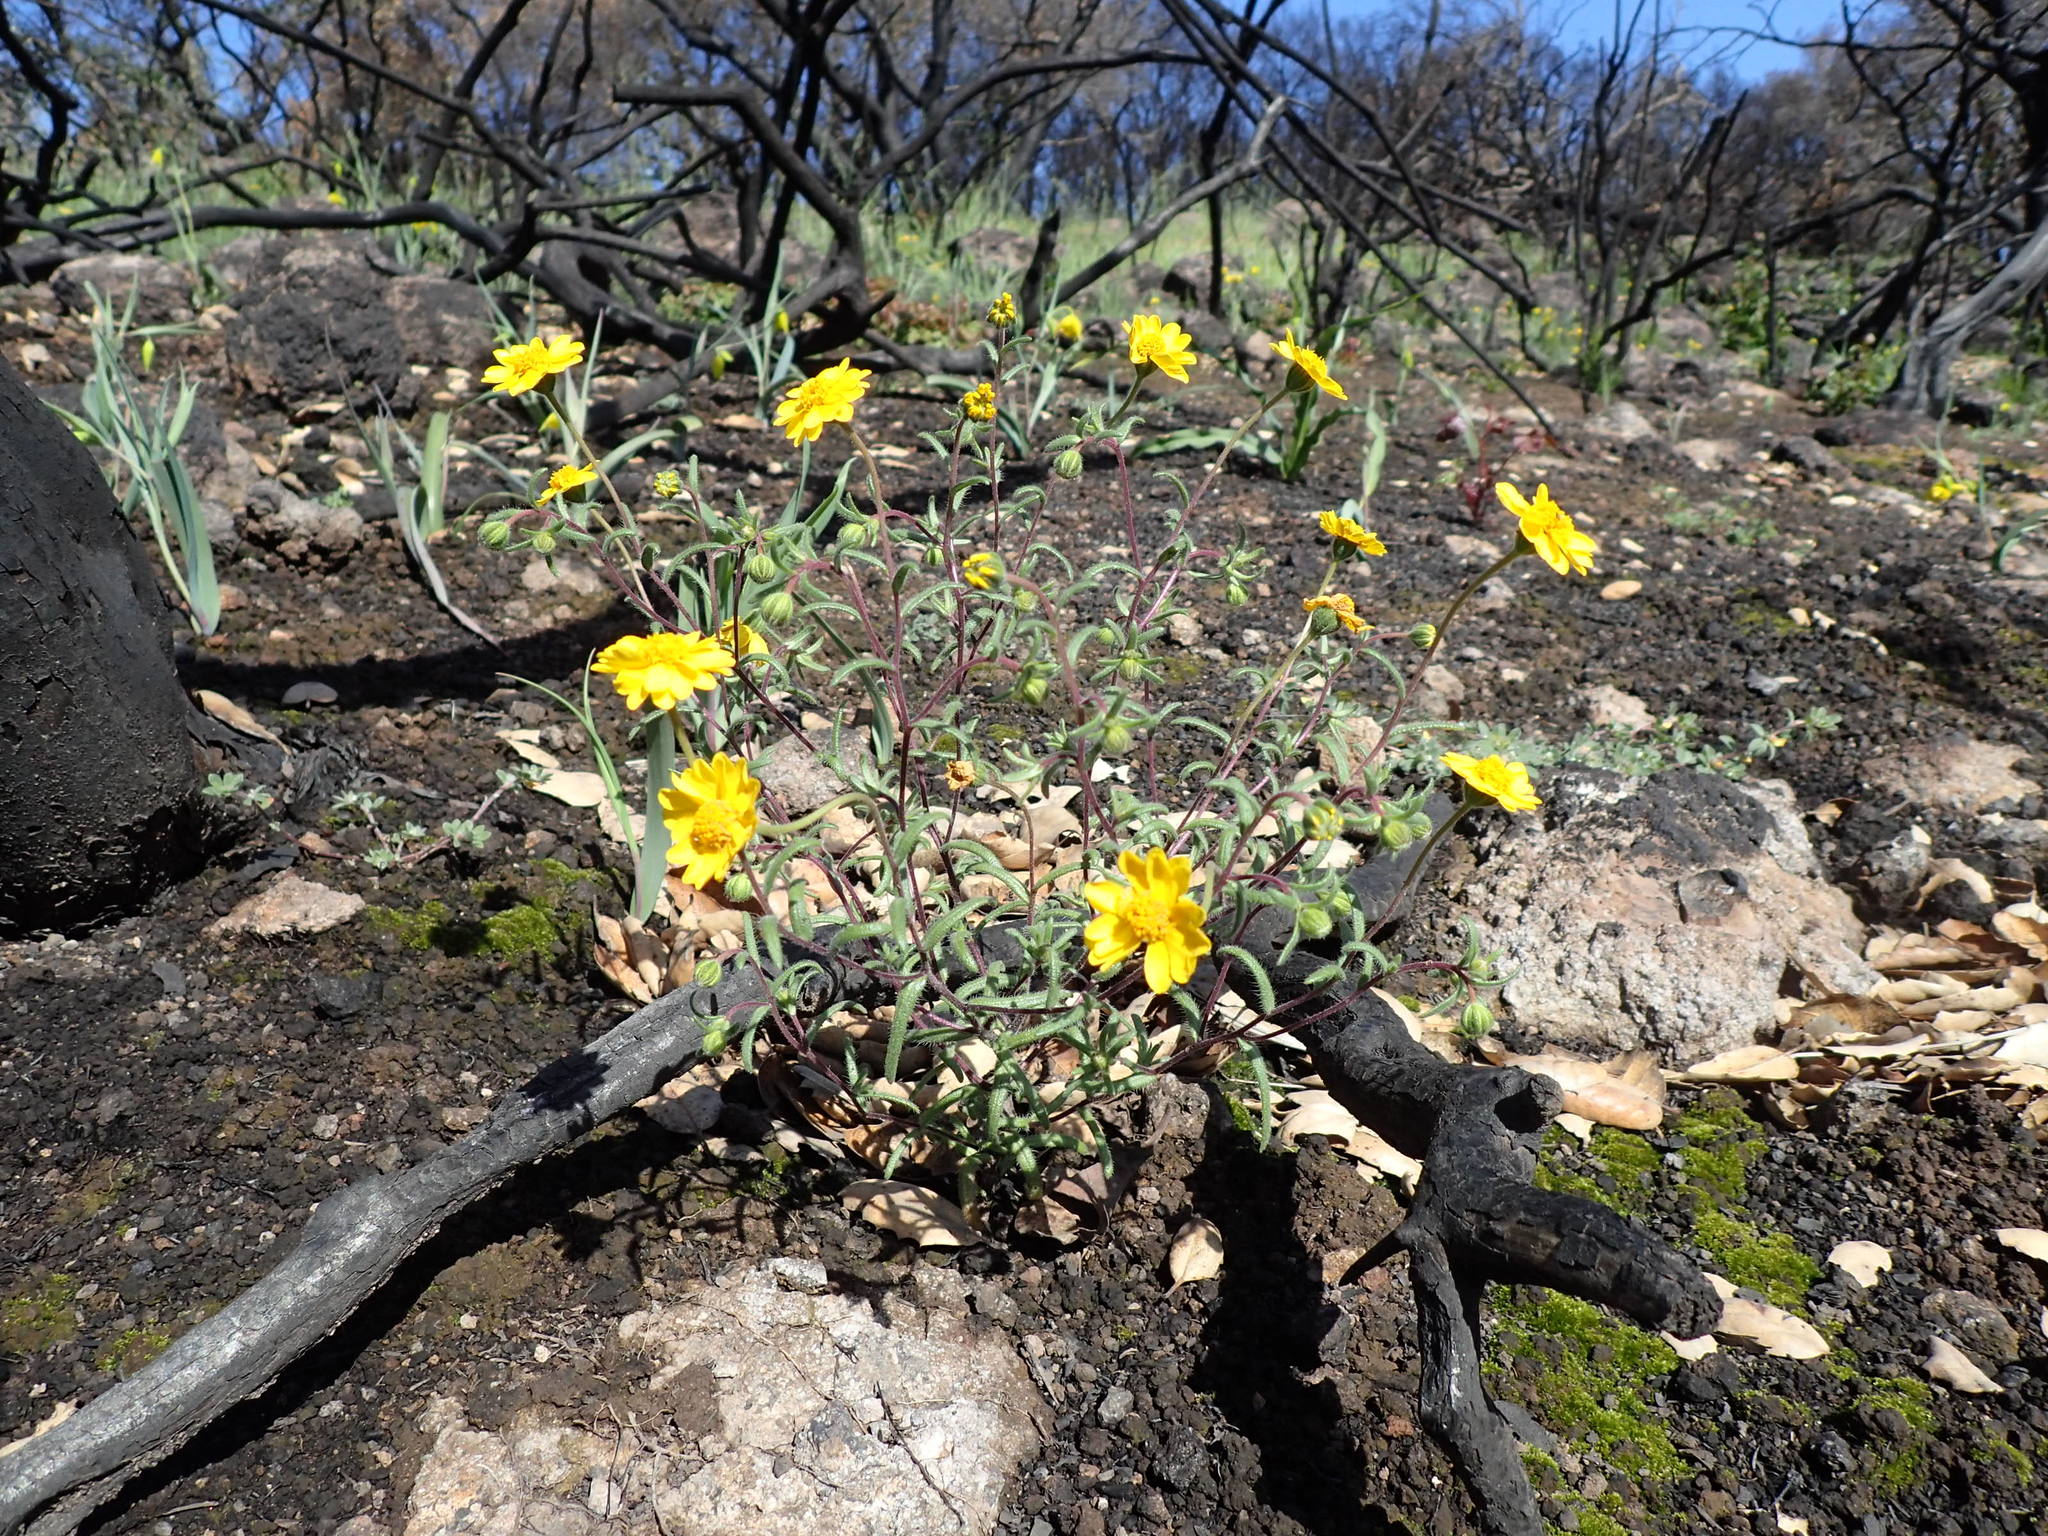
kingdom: Plantae
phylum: Tracheophyta
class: Magnoliopsida
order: Asterales
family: Asteraceae
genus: Harmonia
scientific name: Harmonia nutans
